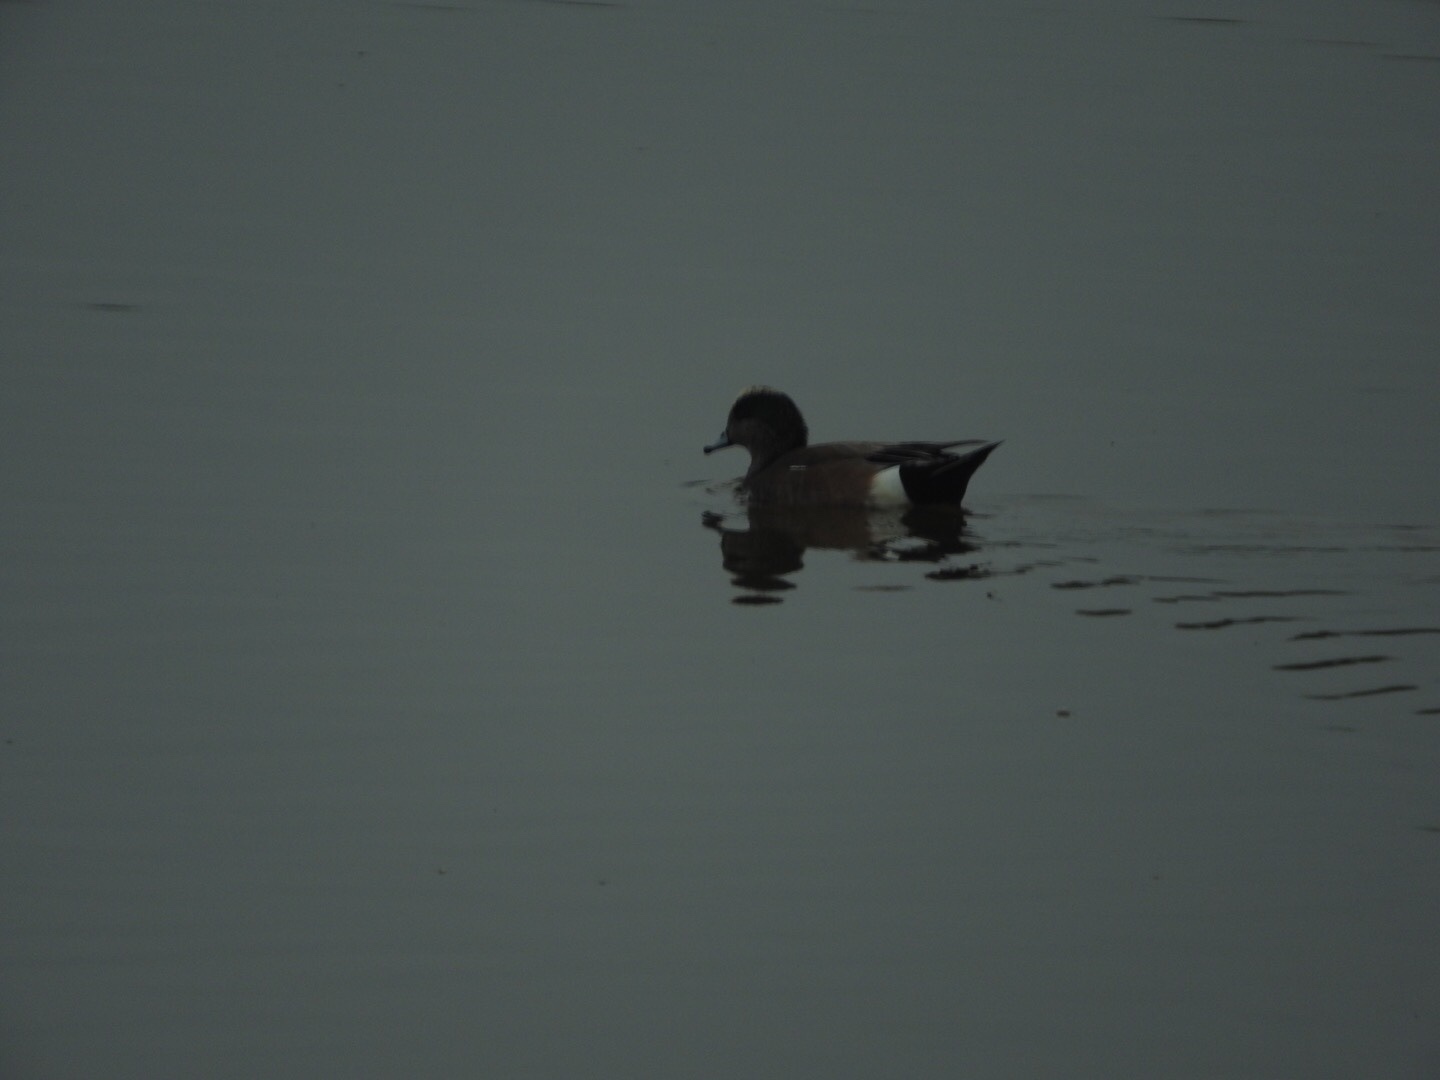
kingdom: Animalia
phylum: Chordata
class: Aves
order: Anseriformes
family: Anatidae
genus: Mareca
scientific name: Mareca americana
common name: American wigeon
